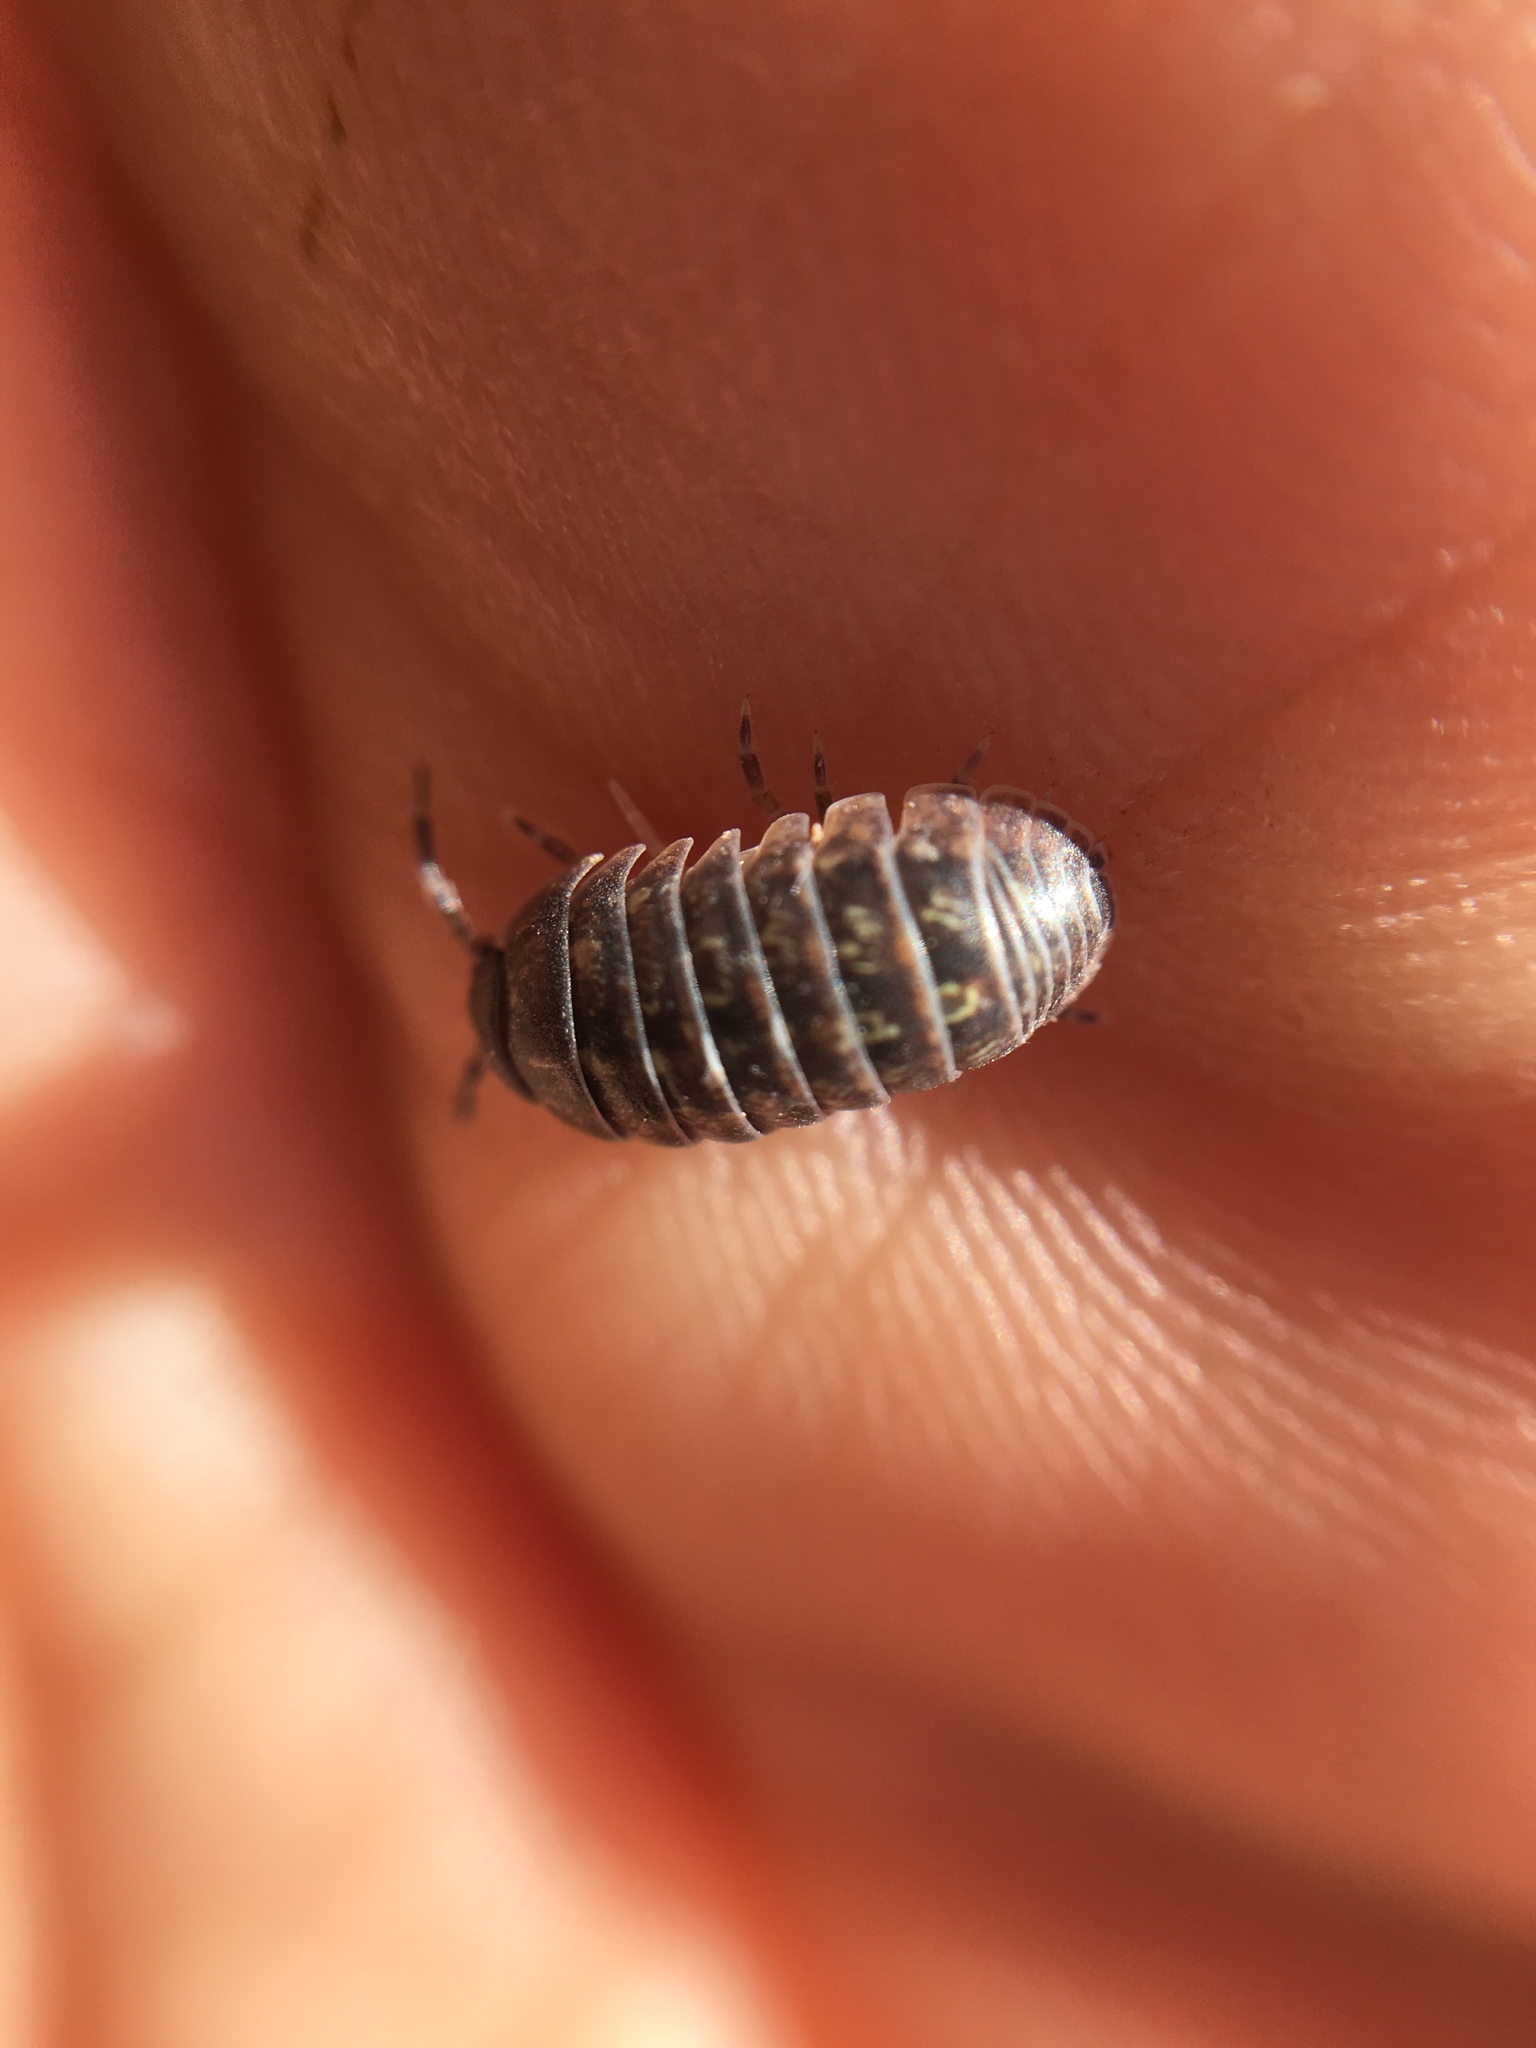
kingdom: Animalia
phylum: Arthropoda
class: Malacostraca
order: Isopoda
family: Armadillidiidae
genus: Armadillidium
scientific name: Armadillidium vulgare
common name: Common pill woodlouse
